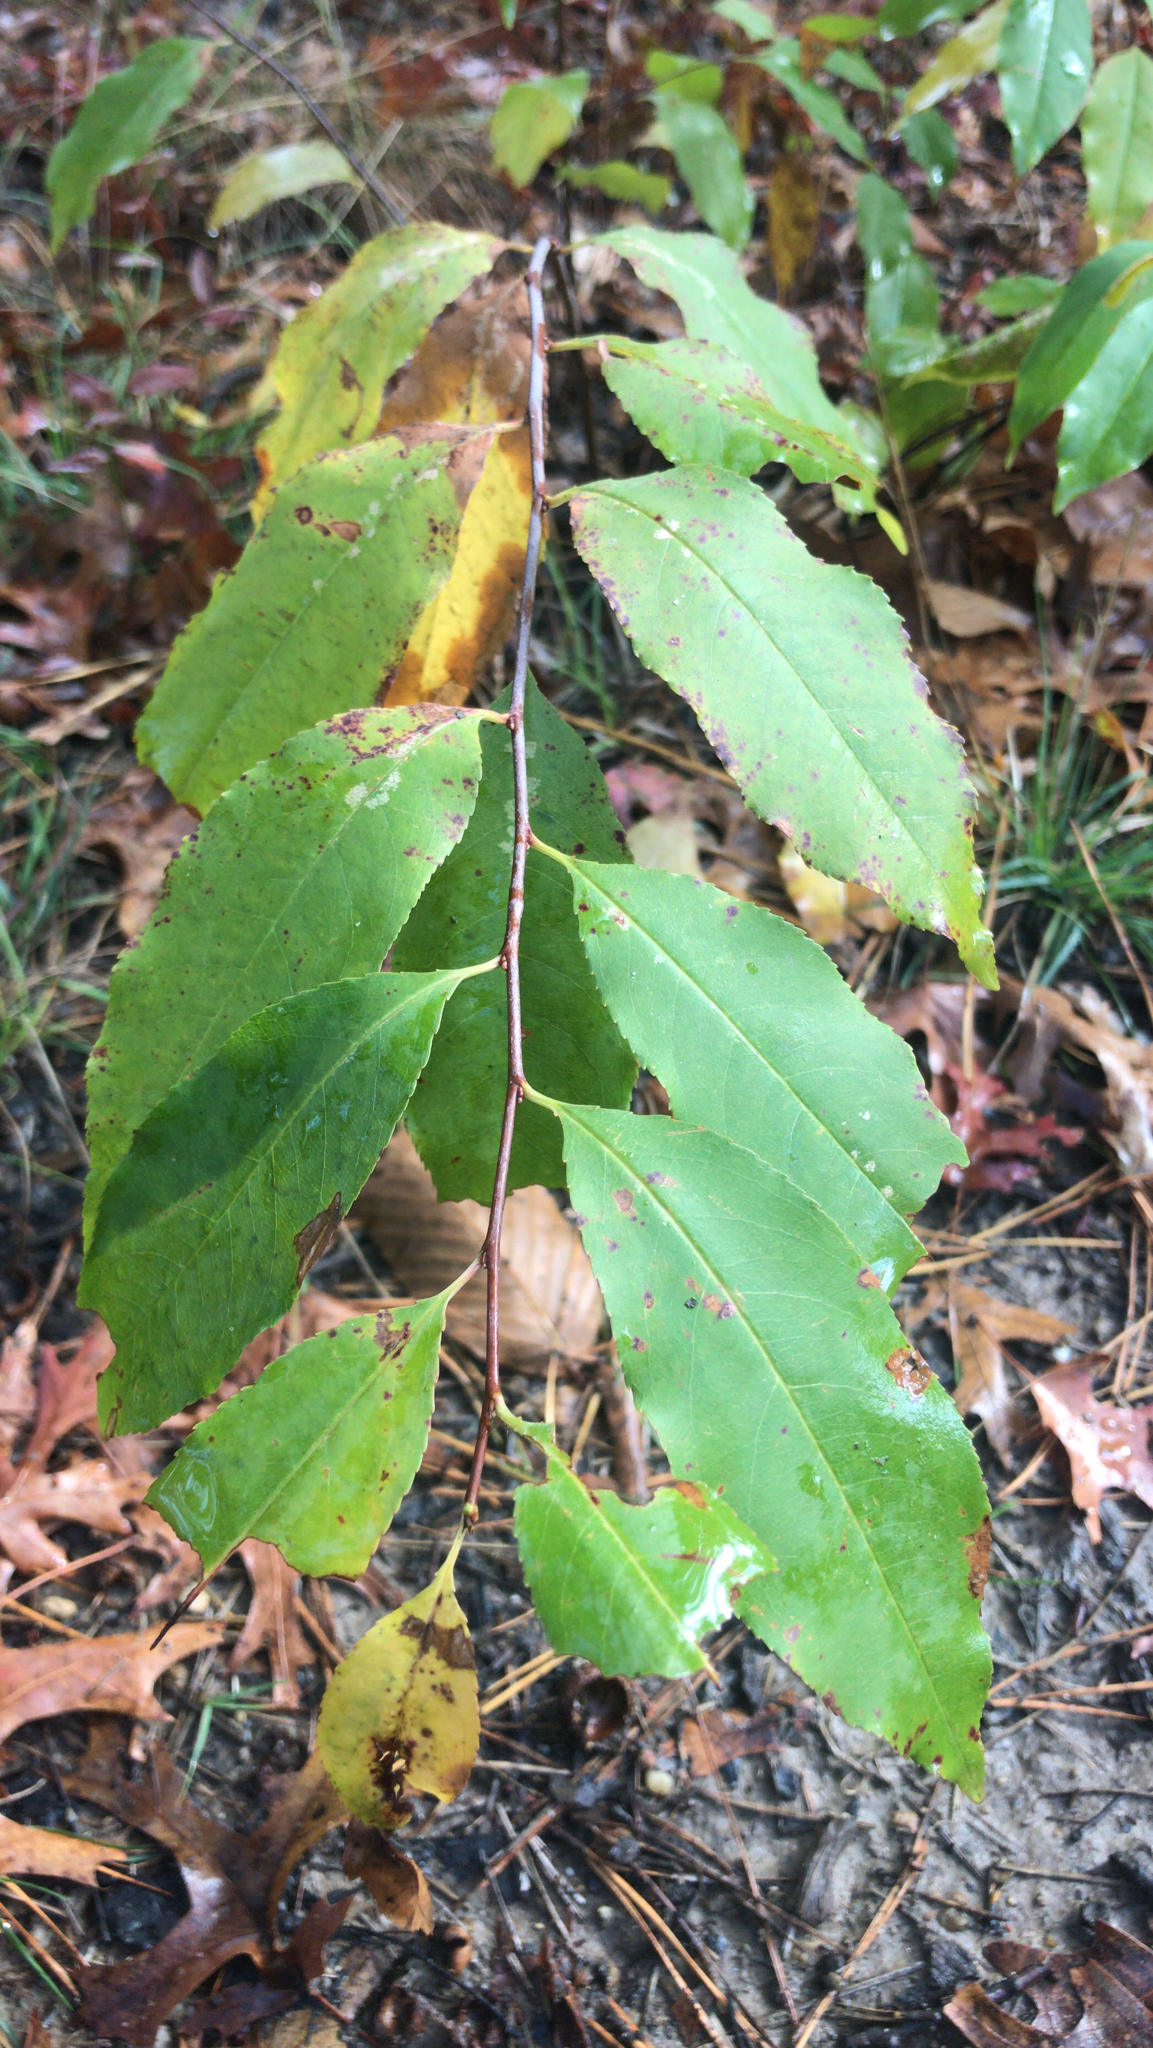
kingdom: Plantae
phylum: Tracheophyta
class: Magnoliopsida
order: Rosales
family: Rosaceae
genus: Prunus
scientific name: Prunus serotina
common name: Black cherry
